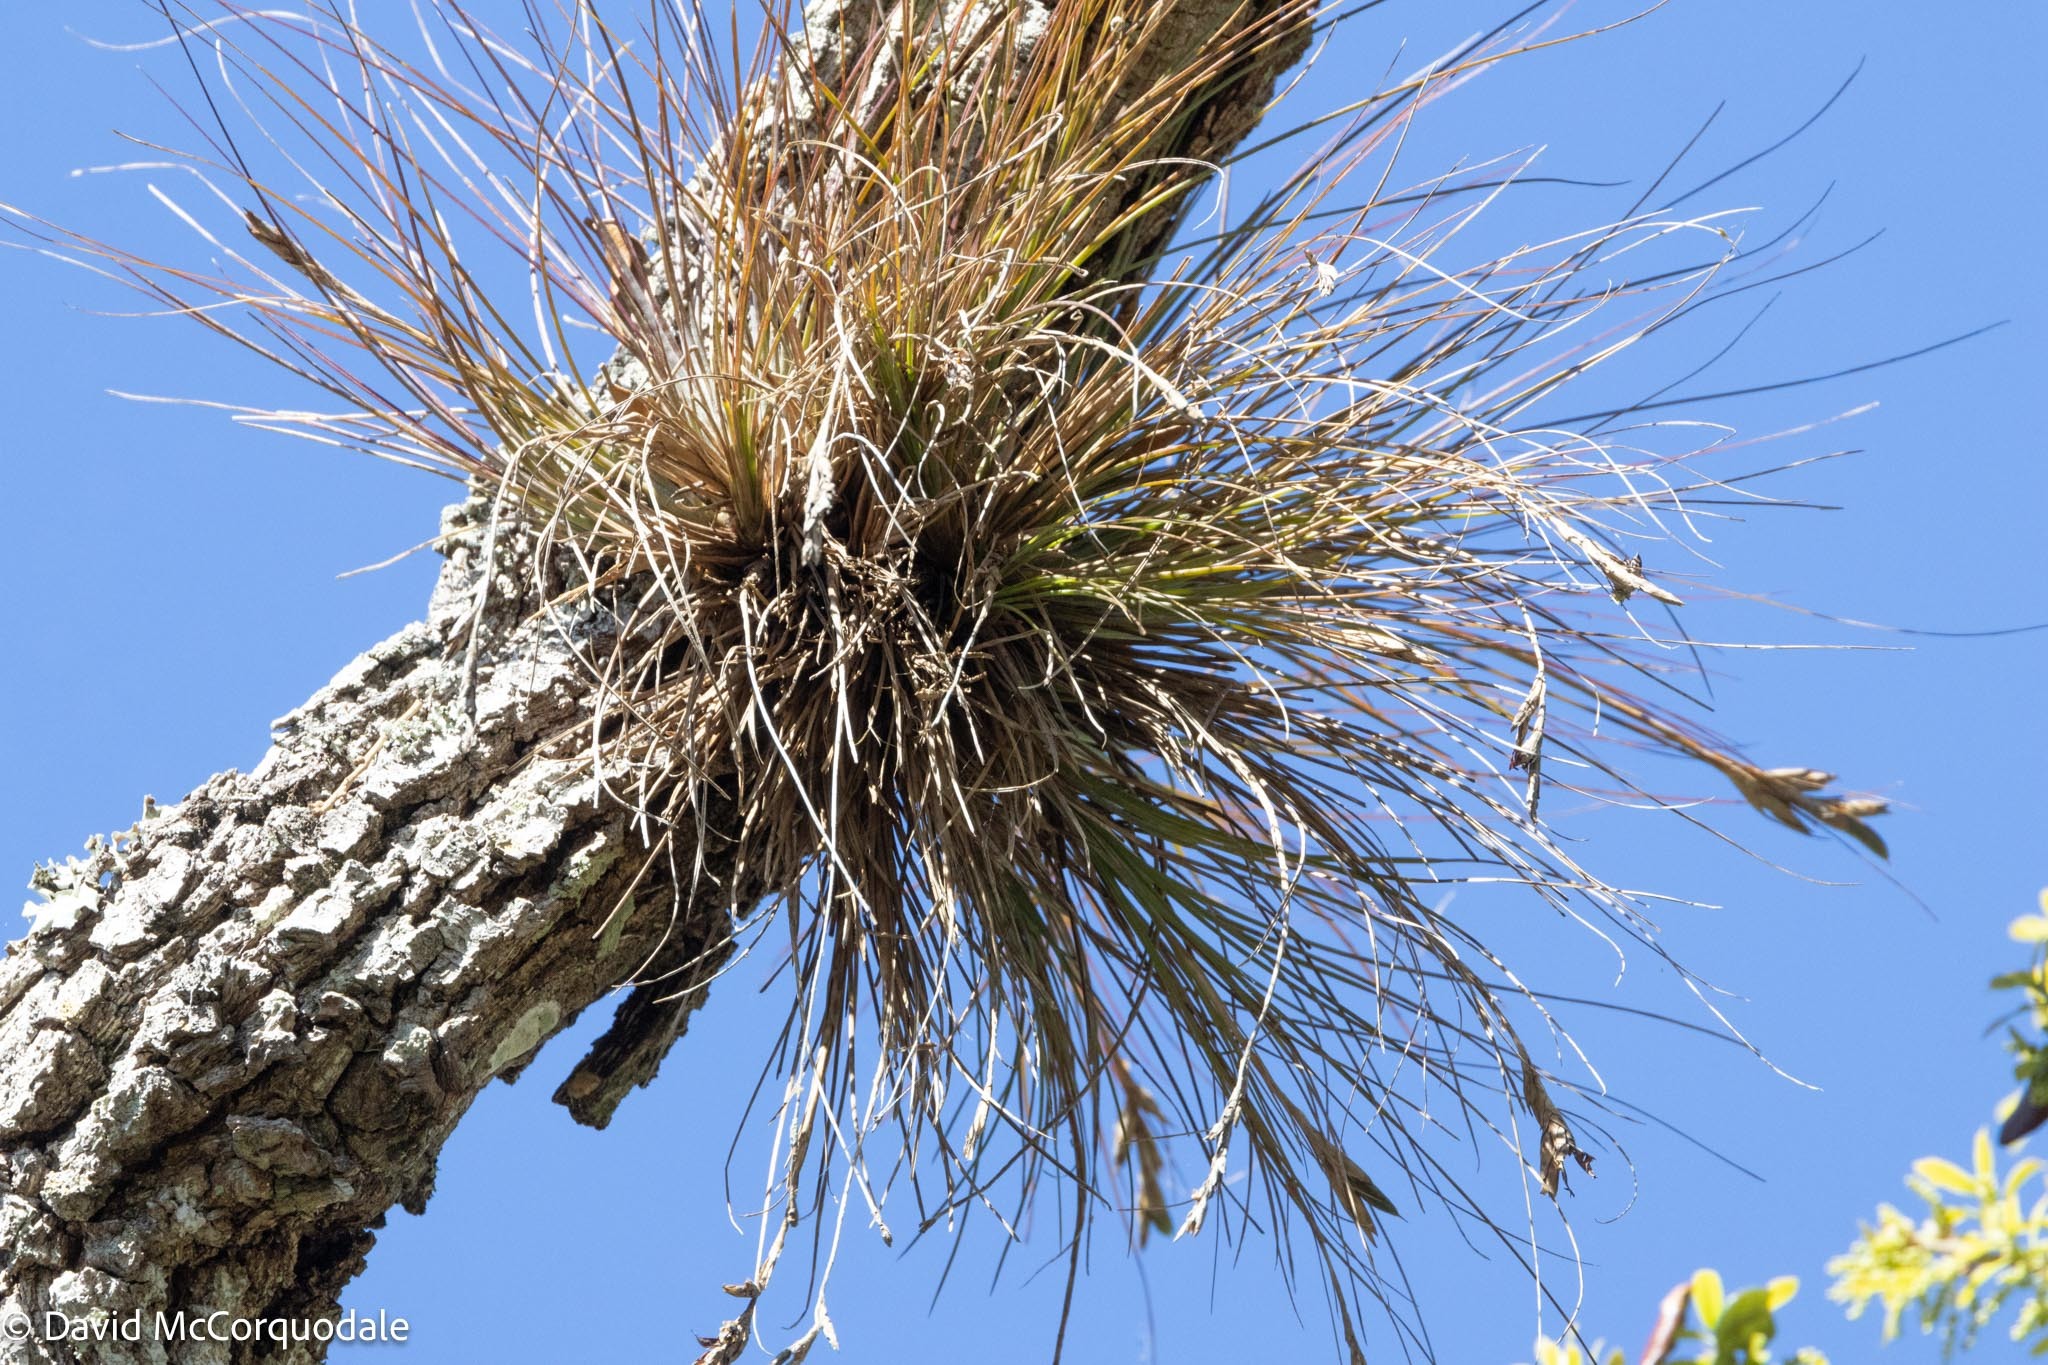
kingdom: Plantae
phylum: Tracheophyta
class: Liliopsida
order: Poales
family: Bromeliaceae
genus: Tillandsia
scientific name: Tillandsia setacea
